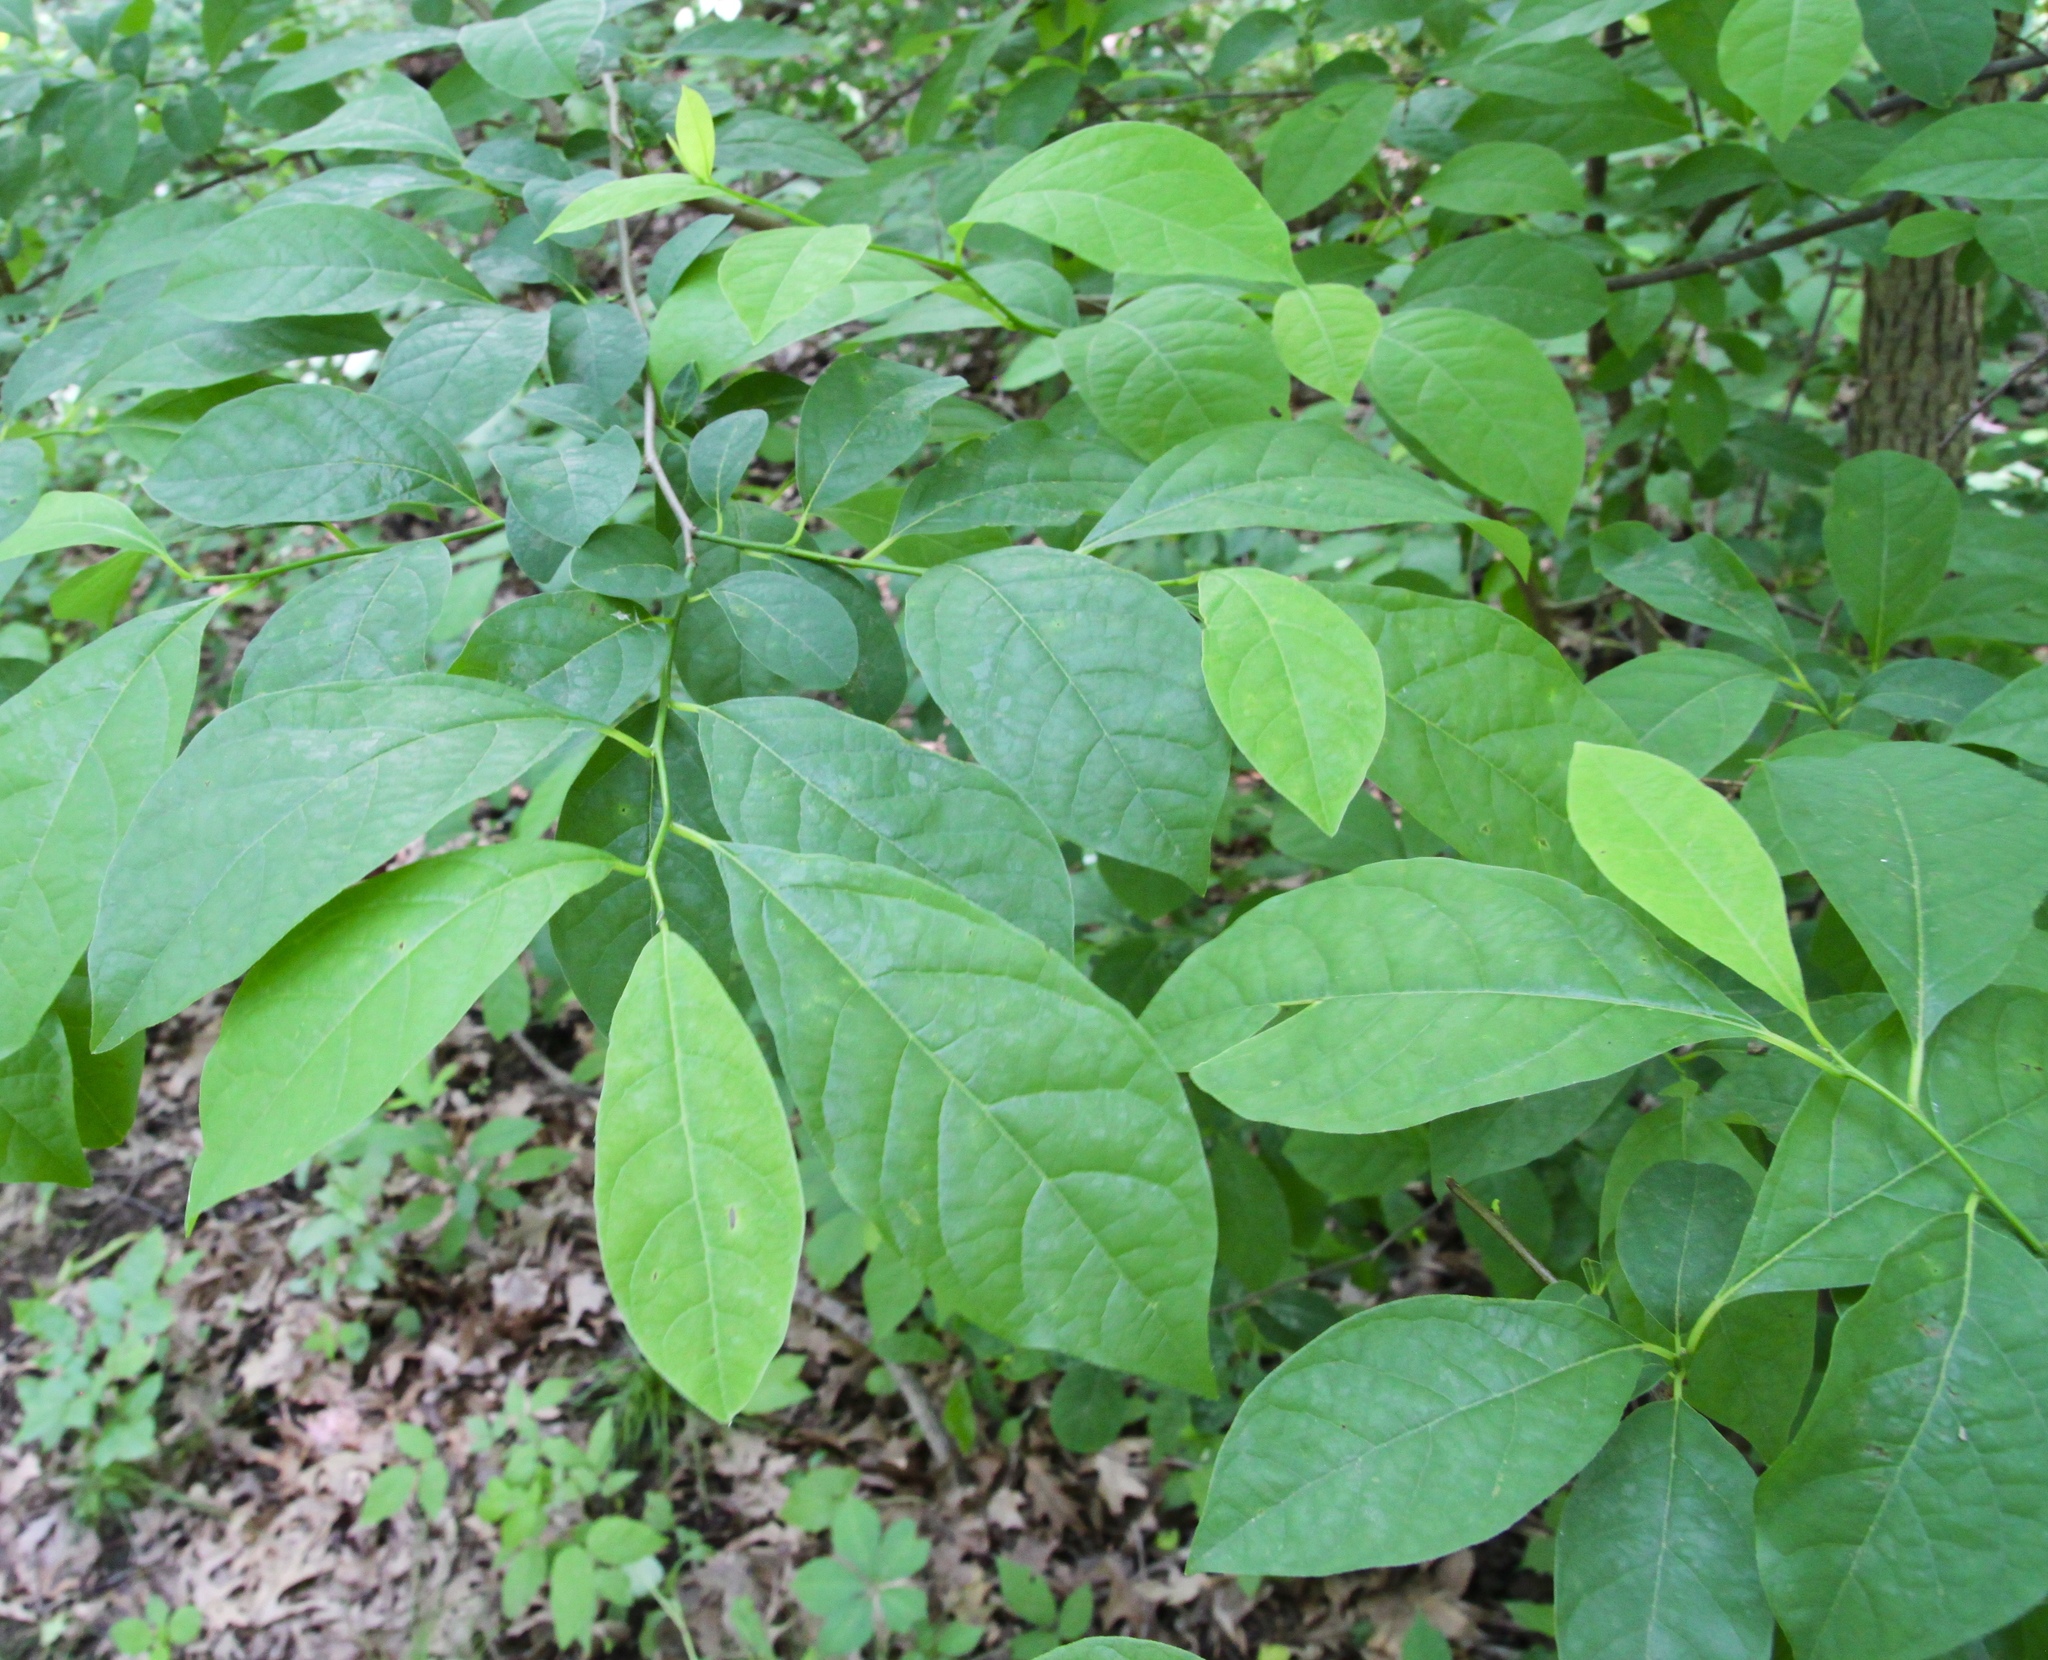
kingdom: Plantae
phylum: Tracheophyta
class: Magnoliopsida
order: Laurales
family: Lauraceae
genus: Lindera
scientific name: Lindera benzoin
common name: Spicebush
